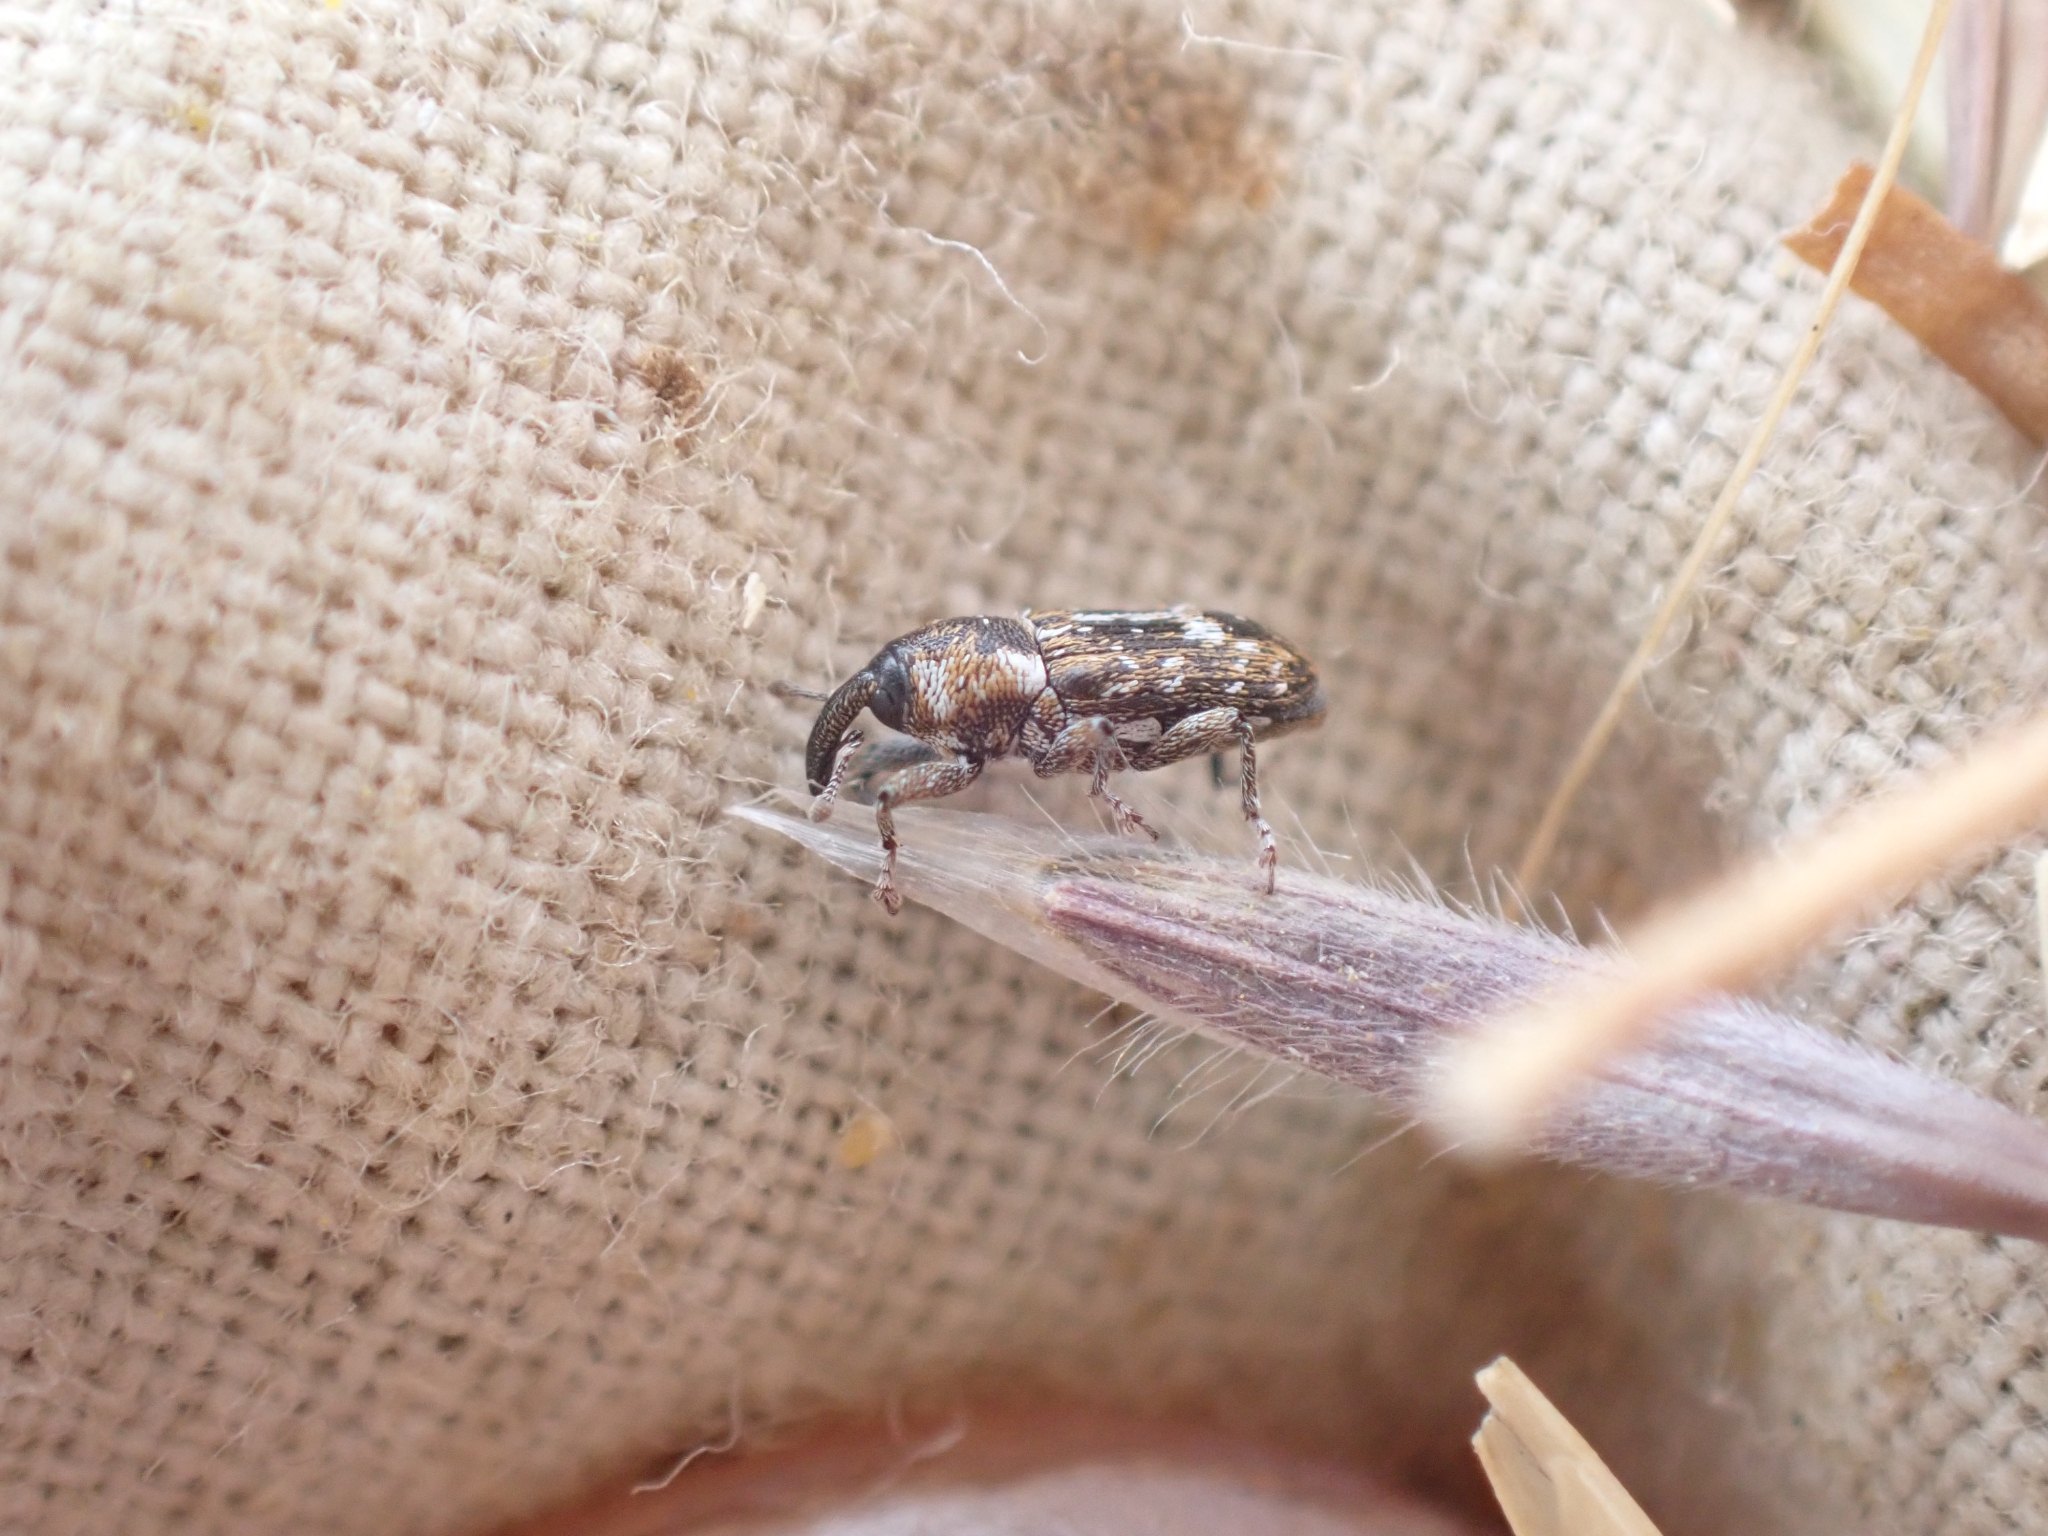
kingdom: Animalia
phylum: Arthropoda
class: Insecta
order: Coleoptera
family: Curculionidae
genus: Cosmobaris
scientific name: Cosmobaris scolopacea
